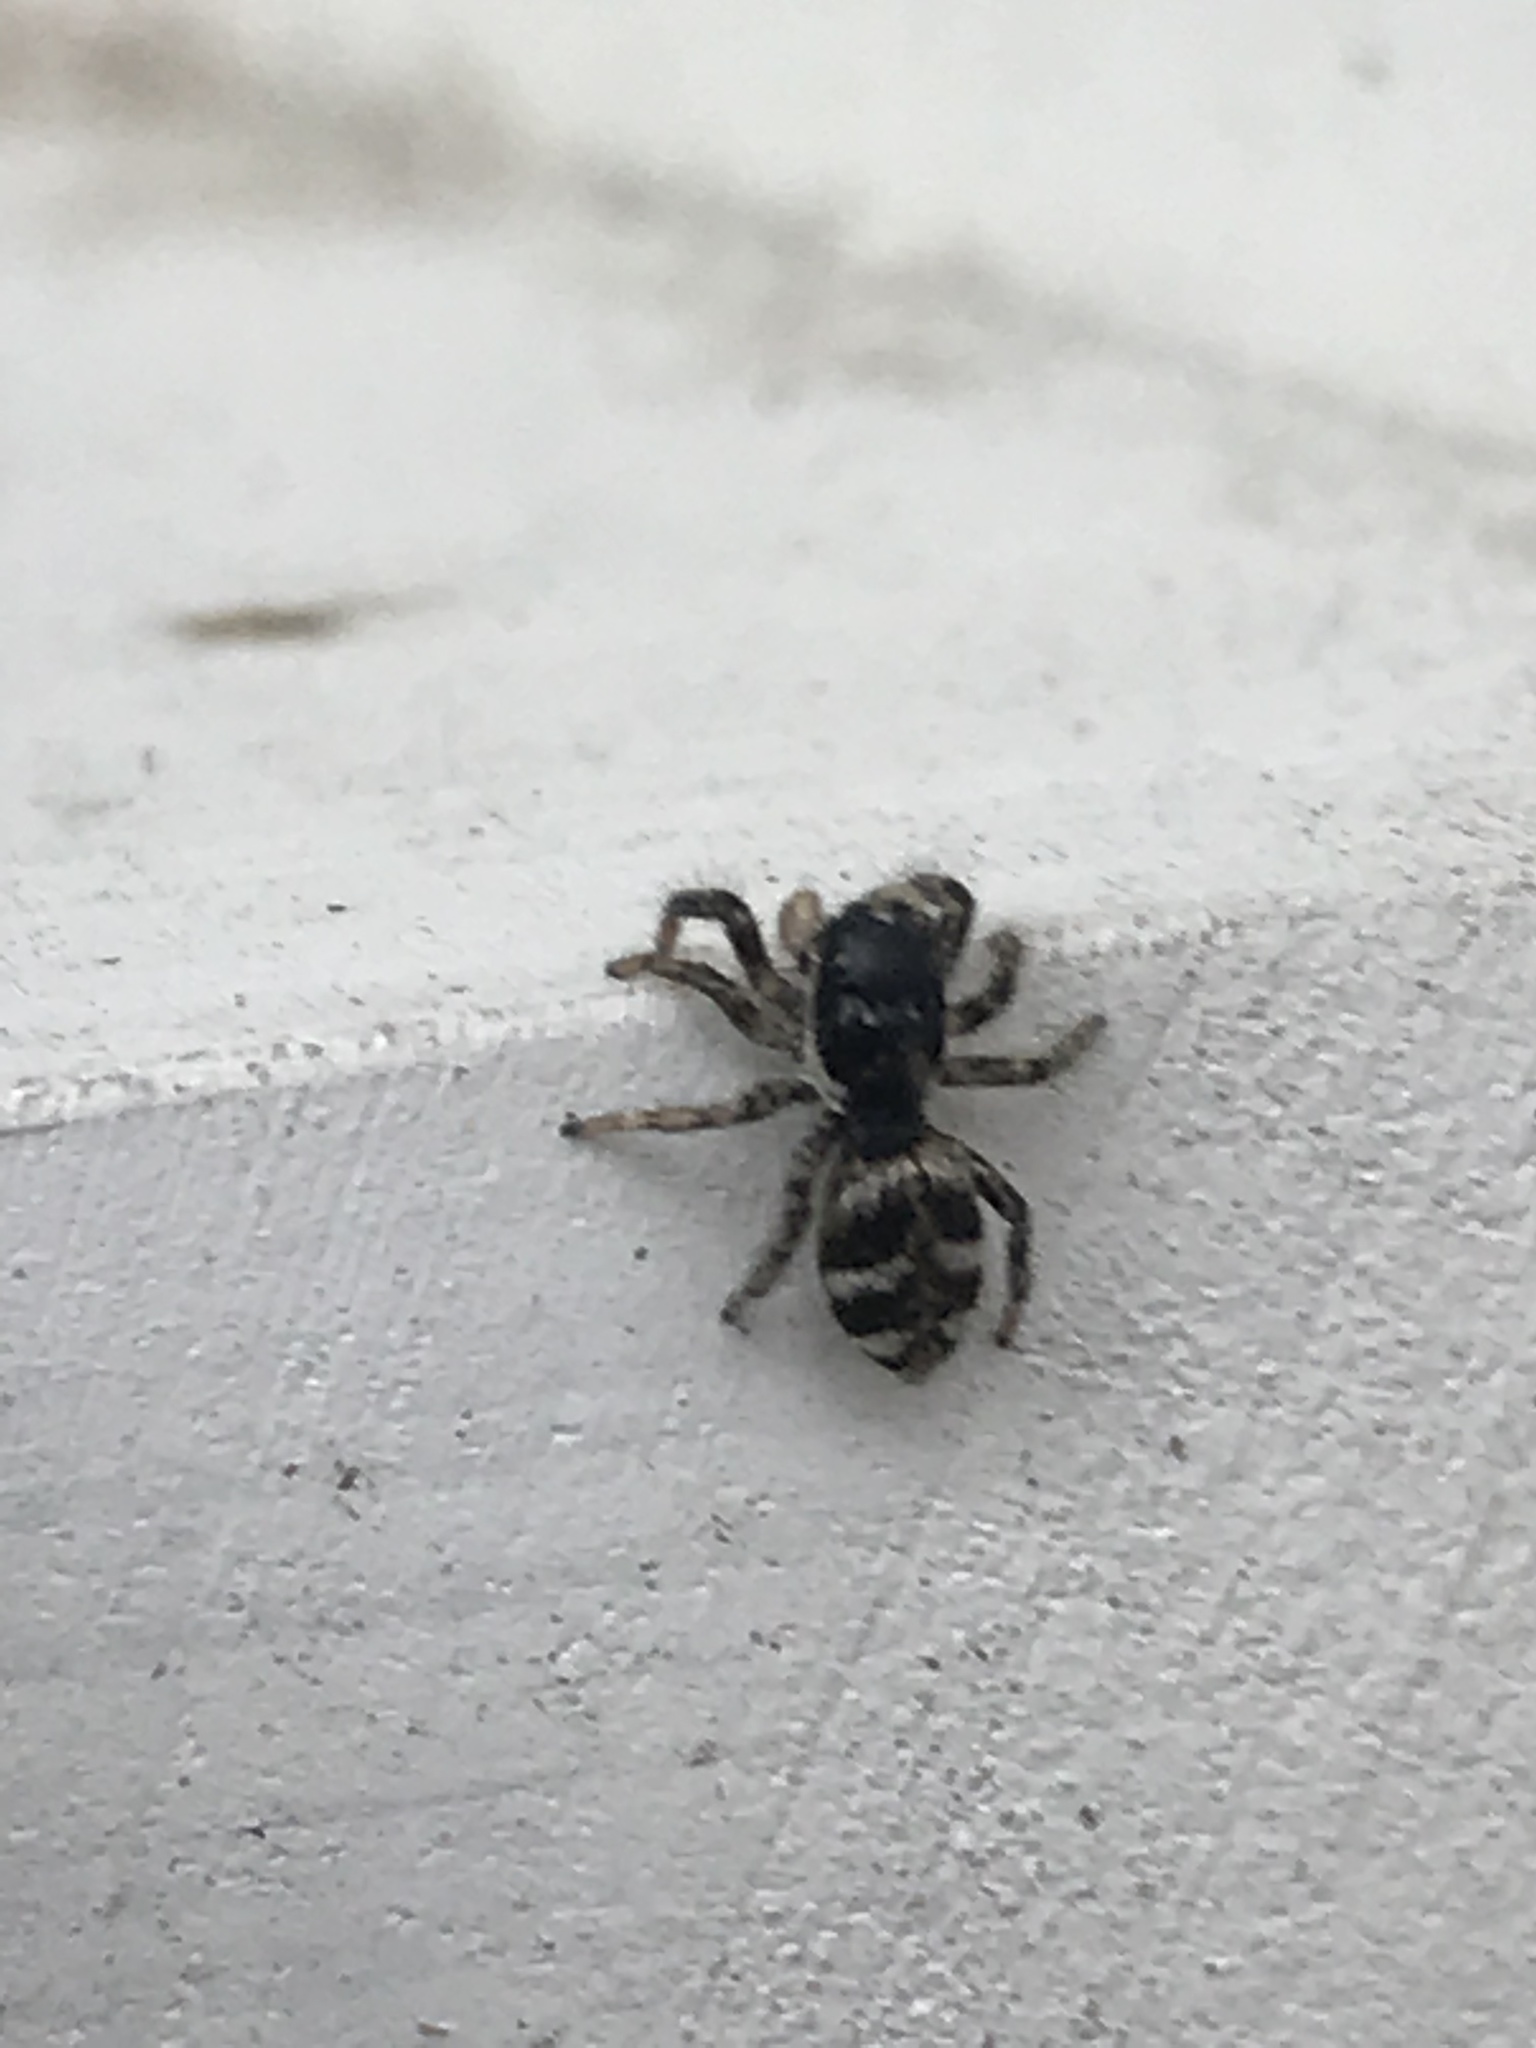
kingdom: Animalia
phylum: Arthropoda
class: Arachnida
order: Araneae
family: Salticidae
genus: Salticus
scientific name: Salticus scenicus
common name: Zebra jumper
